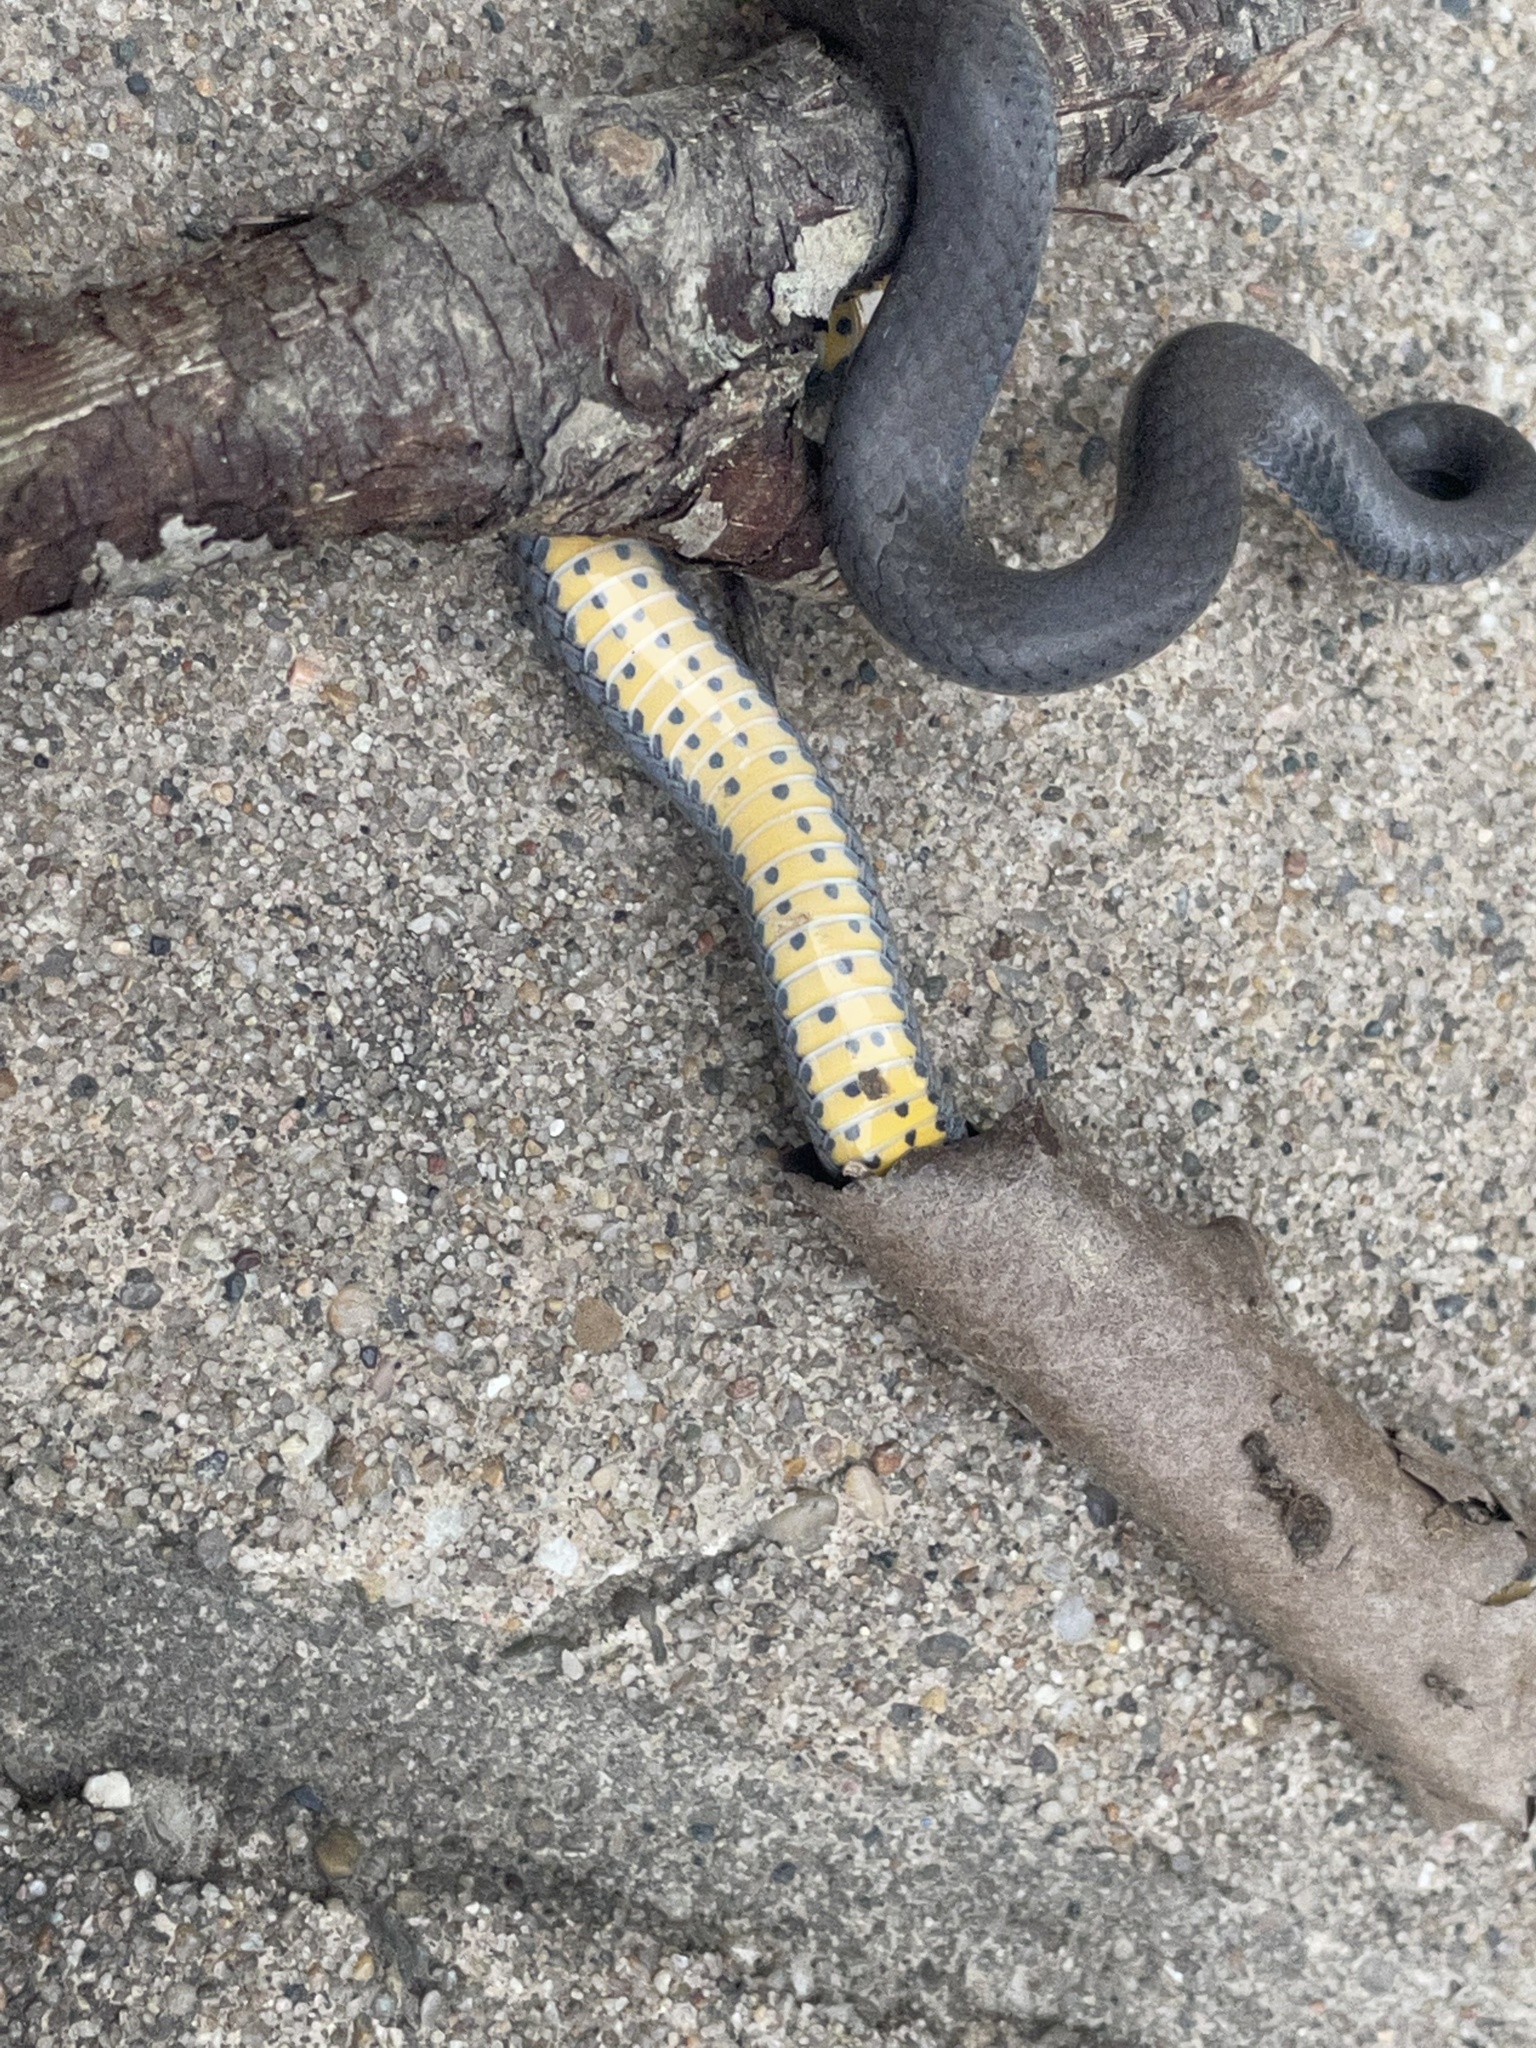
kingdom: Animalia
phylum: Chordata
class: Squamata
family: Colubridae
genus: Diadophis
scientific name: Diadophis punctatus
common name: Ringneck snake
